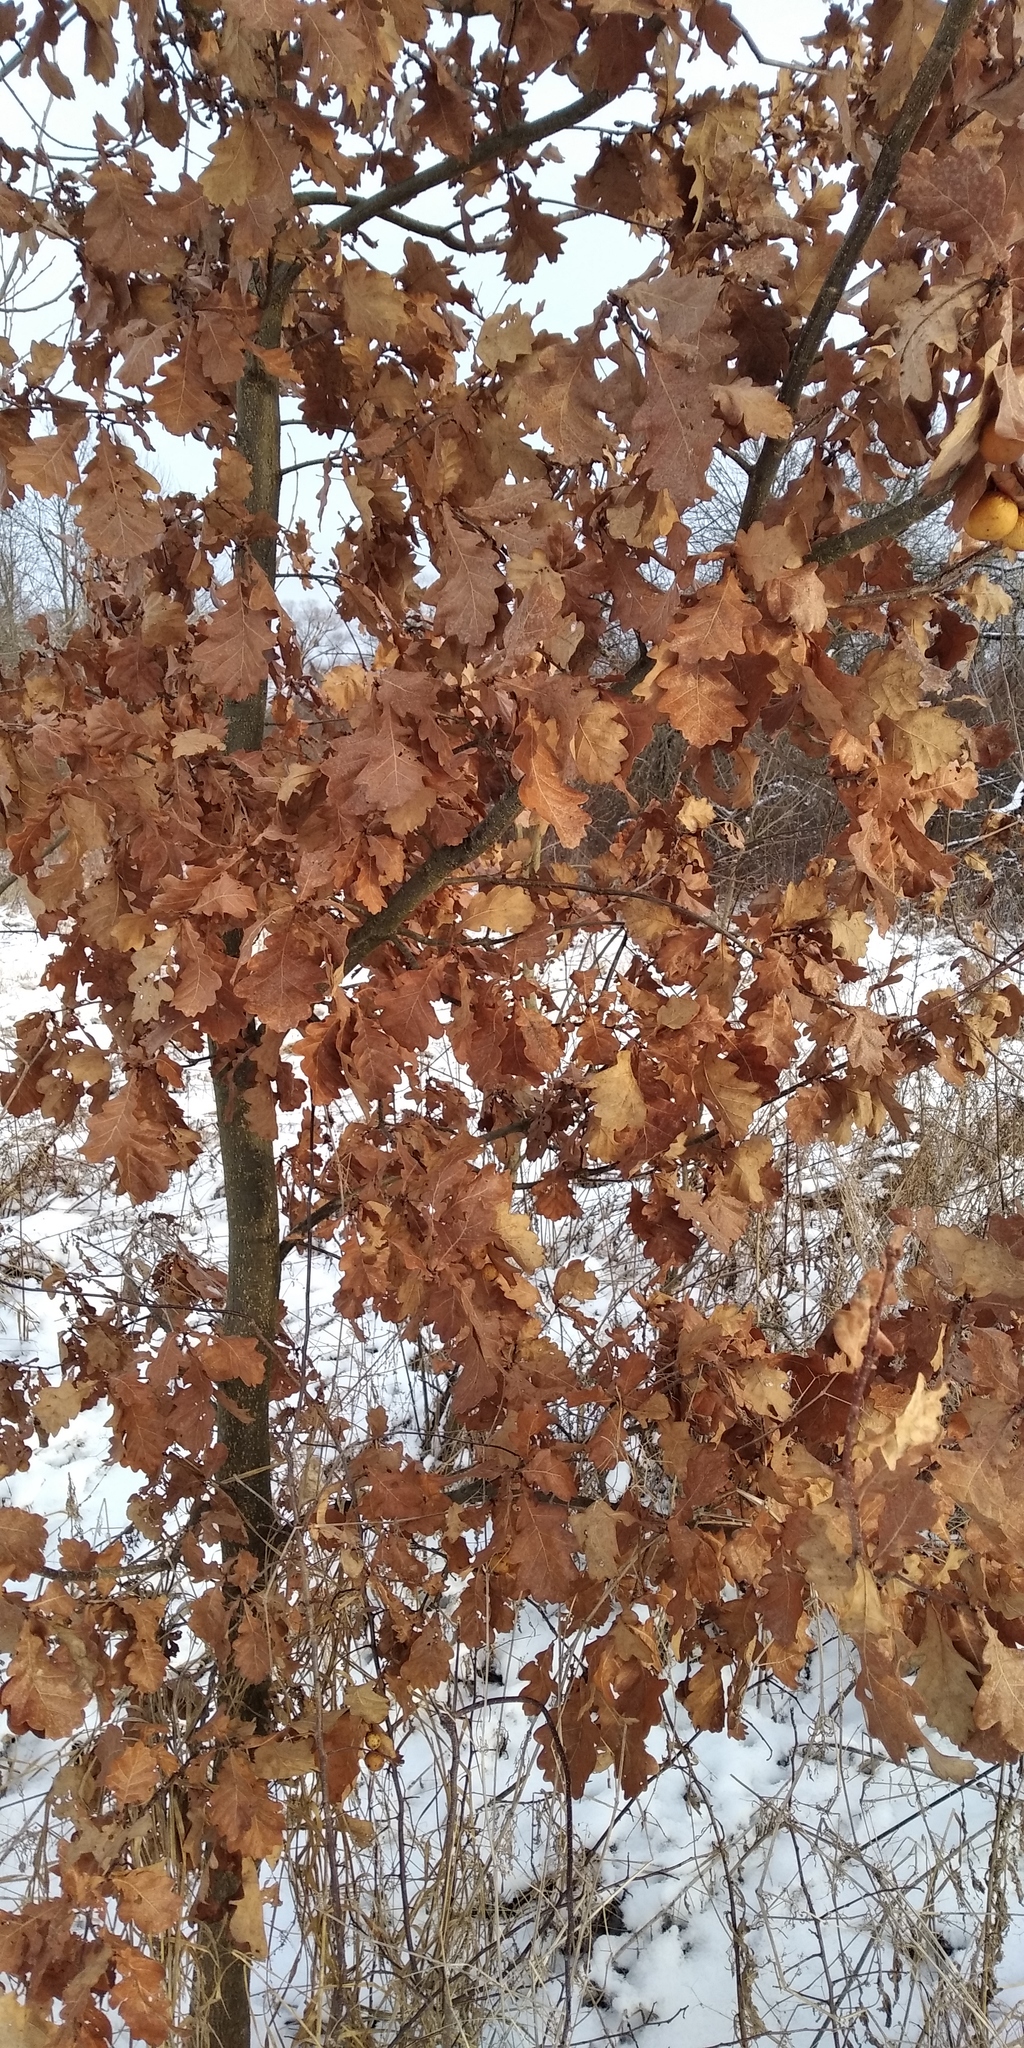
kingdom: Plantae
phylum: Tracheophyta
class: Magnoliopsida
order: Fagales
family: Fagaceae
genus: Quercus
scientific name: Quercus robur
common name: Pedunculate oak
